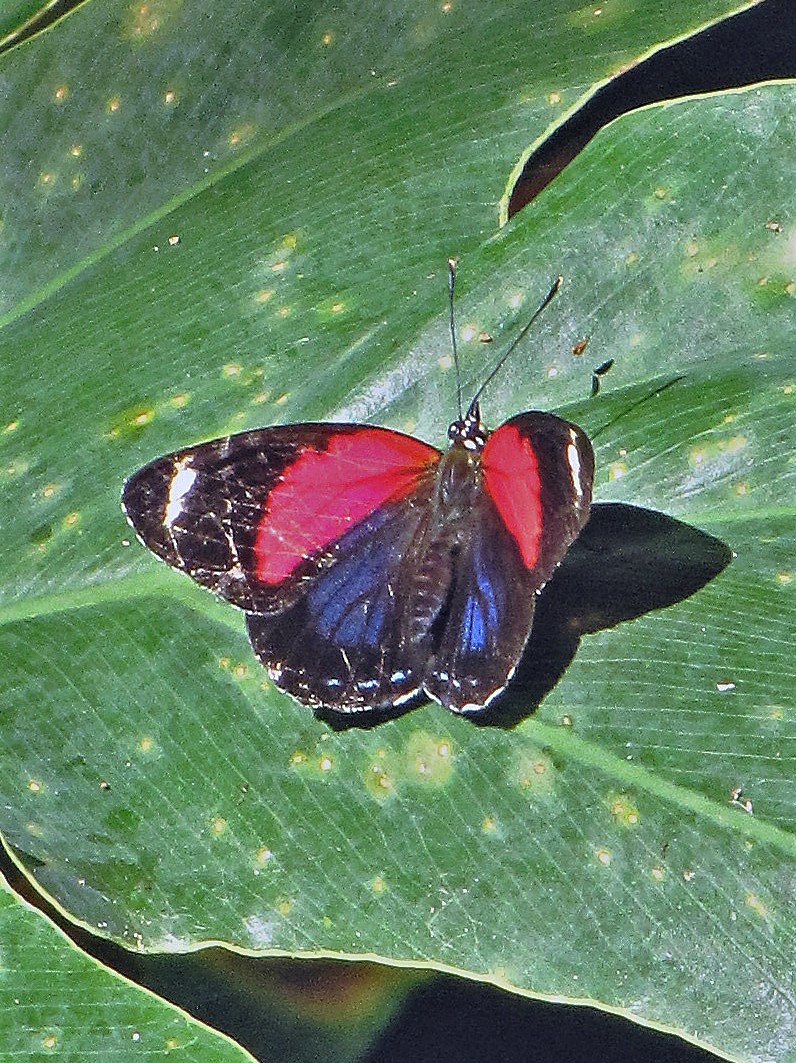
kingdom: Animalia
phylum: Arthropoda
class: Insecta
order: Lepidoptera
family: Nymphalidae
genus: Catagramma
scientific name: Catagramma pygas
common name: Godart's numberwing
